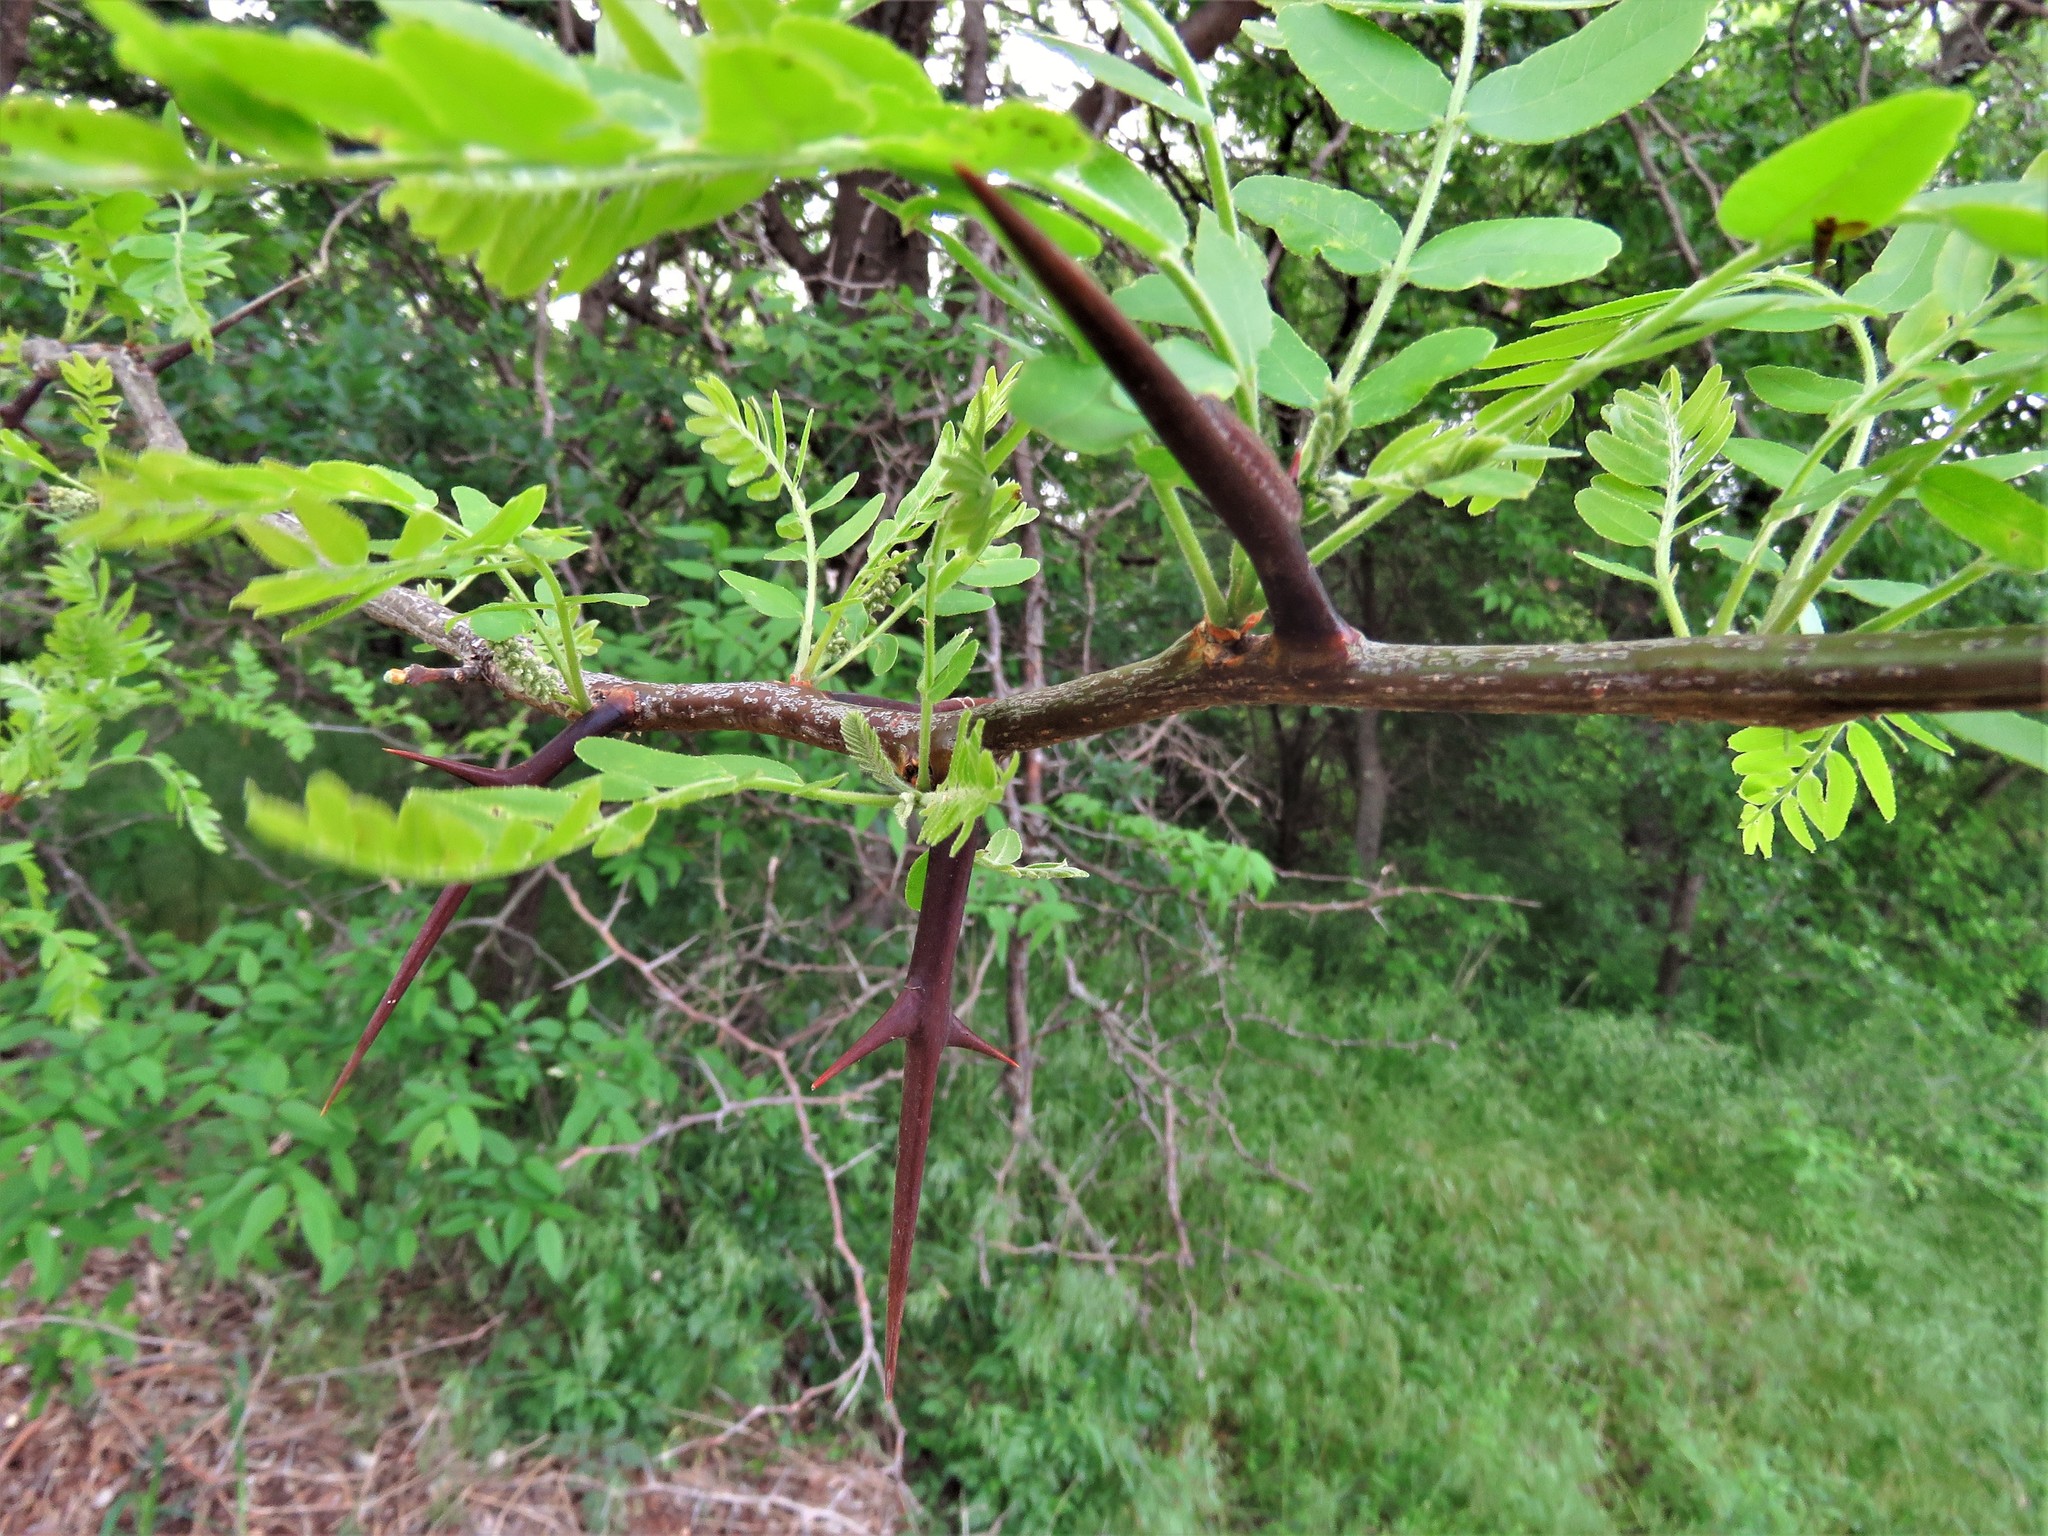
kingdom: Plantae
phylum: Tracheophyta
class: Magnoliopsida
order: Fabales
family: Fabaceae
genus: Gleditsia
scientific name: Gleditsia triacanthos
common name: Common honeylocust
